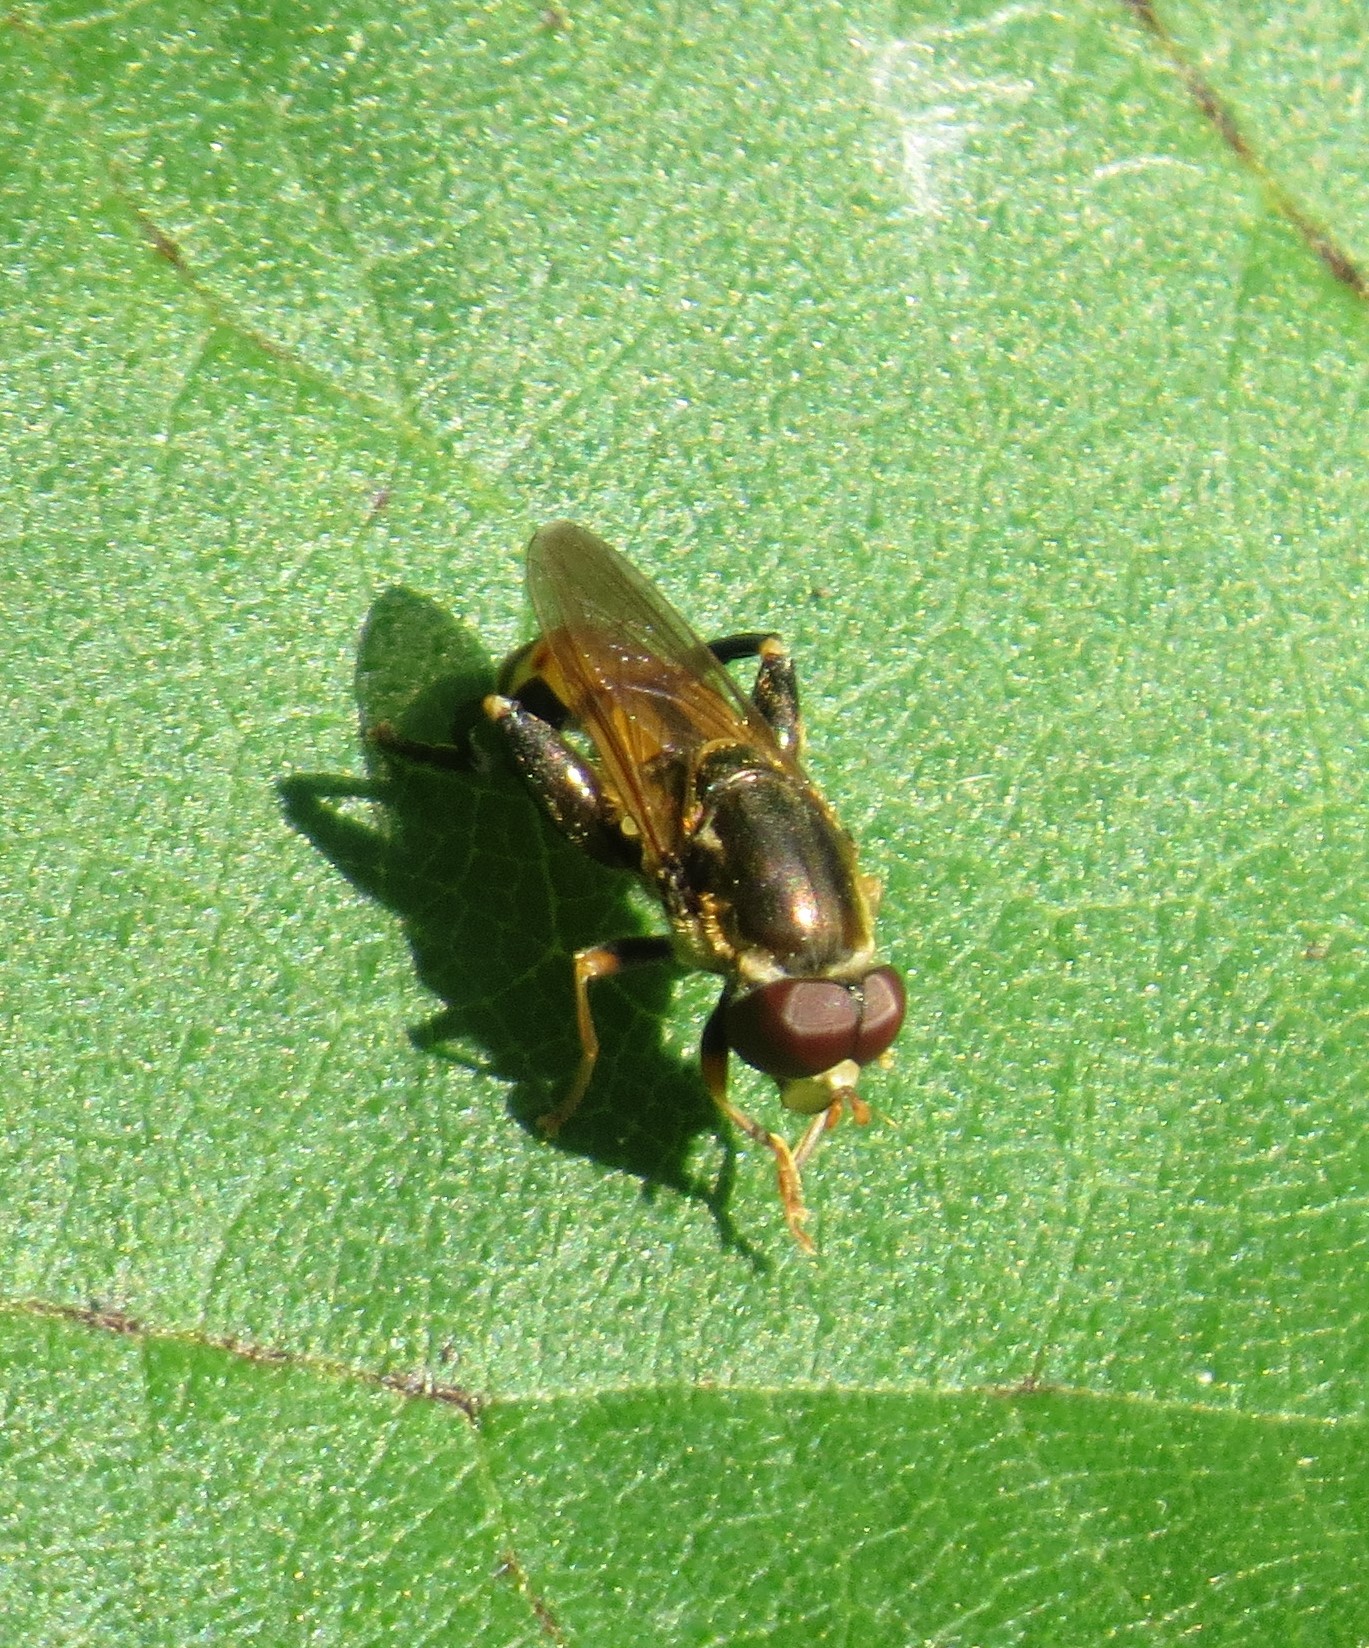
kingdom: Animalia
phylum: Arthropoda
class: Insecta
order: Diptera
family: Syrphidae
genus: Tropidia
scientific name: Tropidia quadrata
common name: Common thick-legged fly
